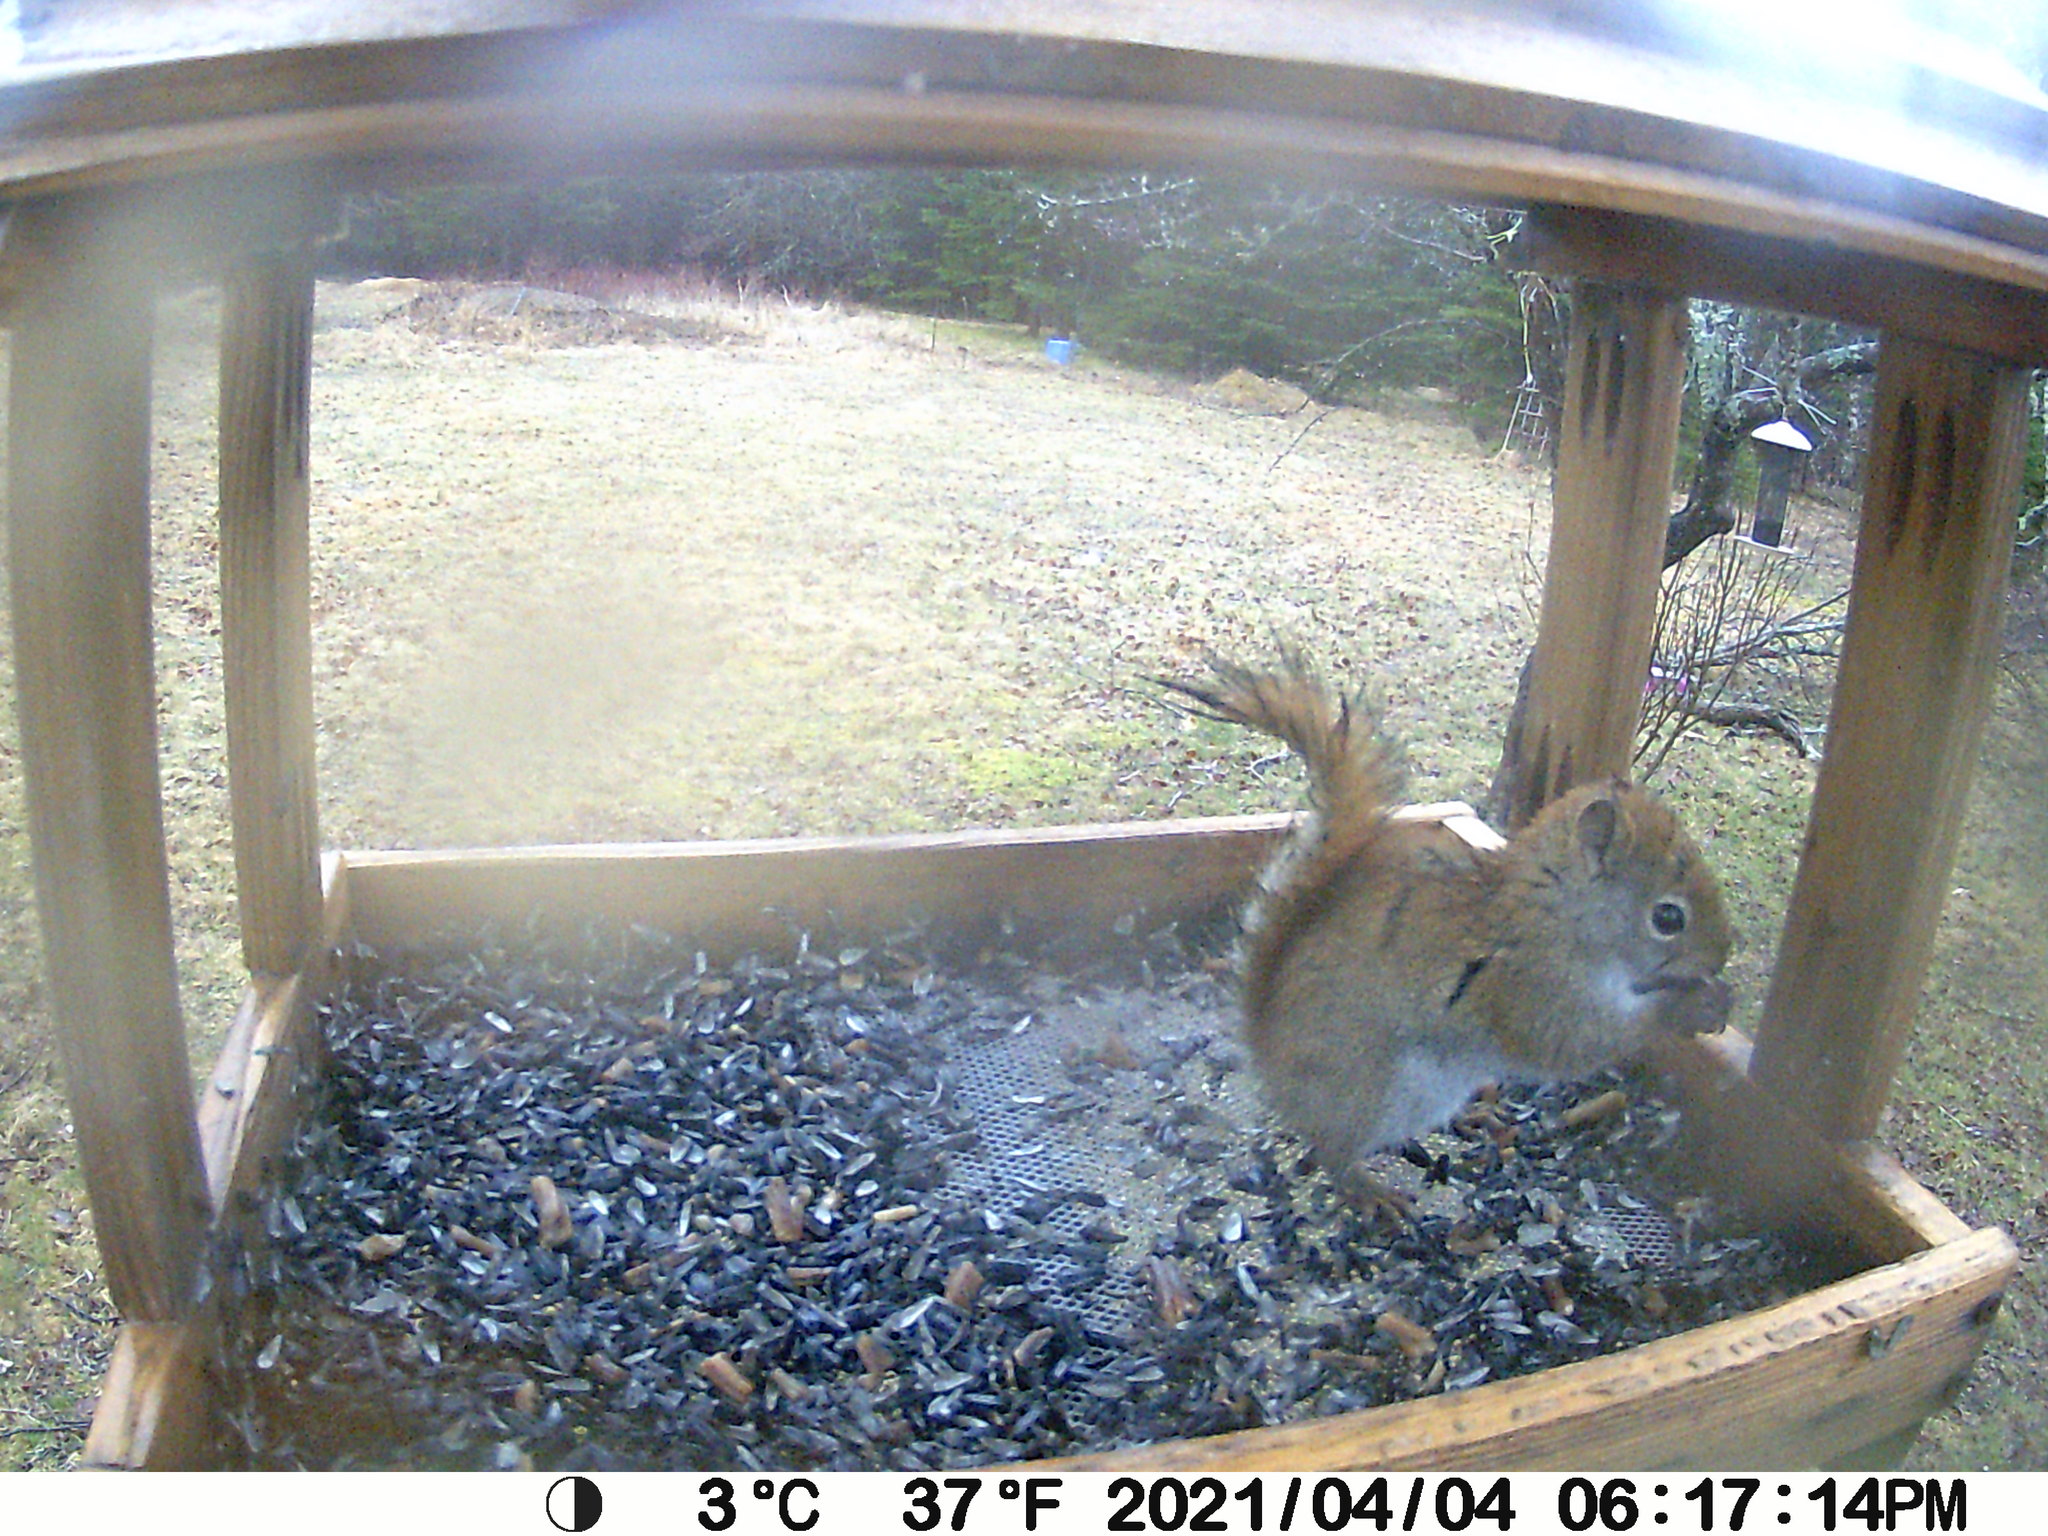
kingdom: Animalia
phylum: Chordata
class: Mammalia
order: Rodentia
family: Sciuridae
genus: Tamiasciurus
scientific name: Tamiasciurus hudsonicus
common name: Red squirrel
